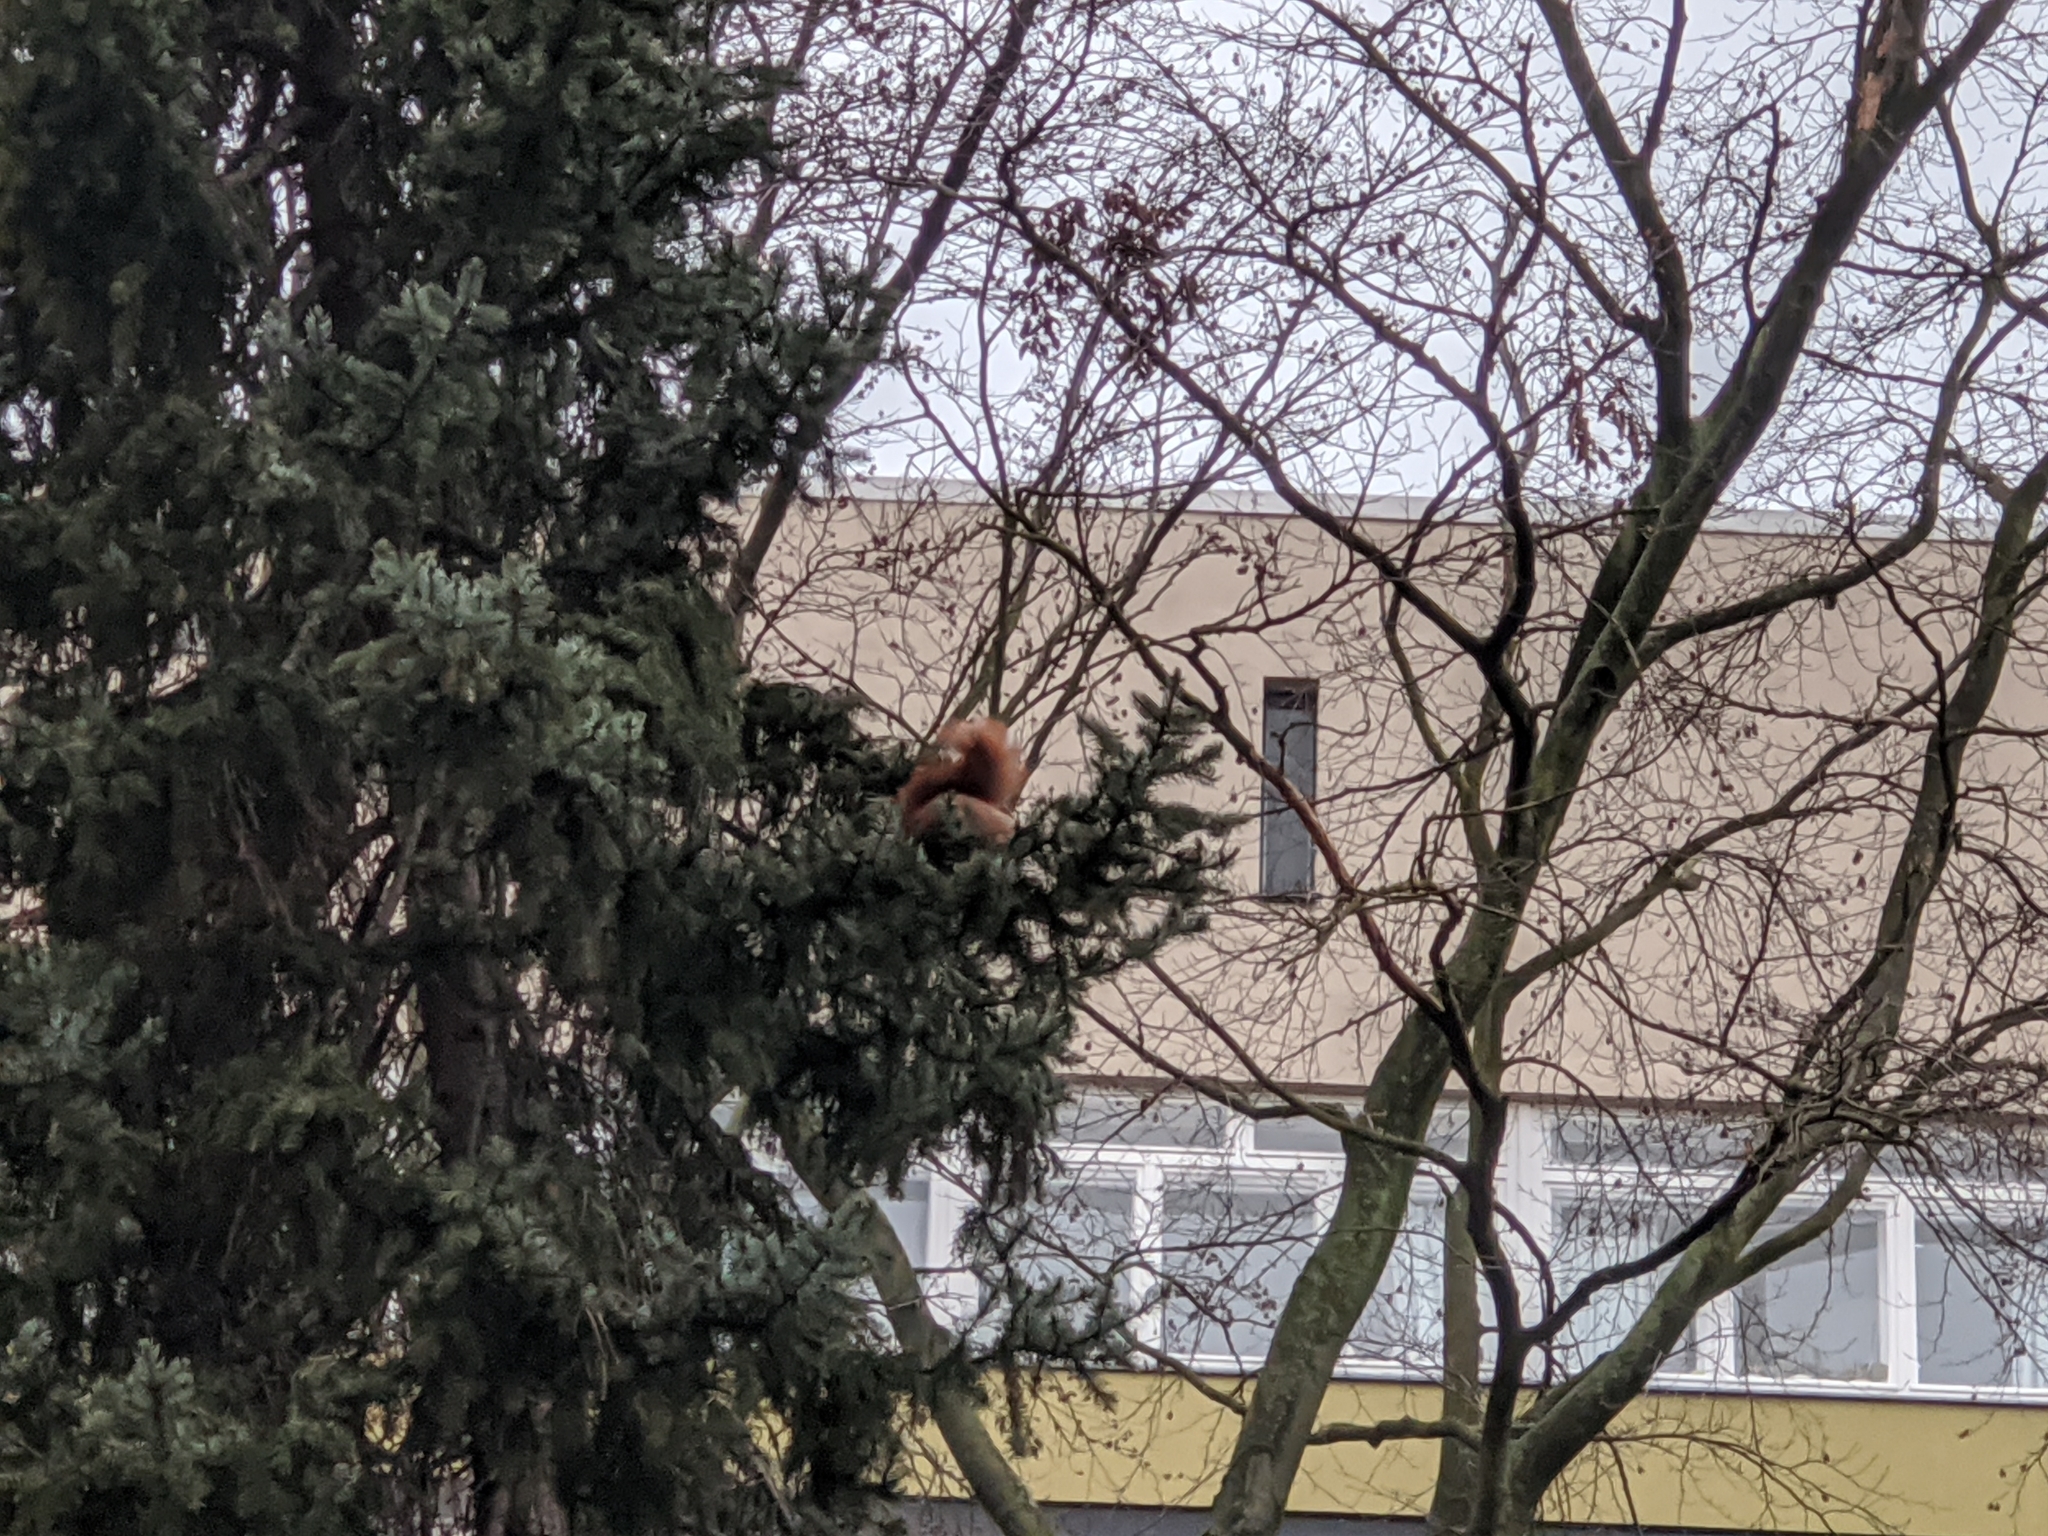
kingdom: Animalia
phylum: Chordata
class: Mammalia
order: Rodentia
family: Sciuridae
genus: Sciurus
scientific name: Sciurus vulgaris
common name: Eurasian red squirrel
